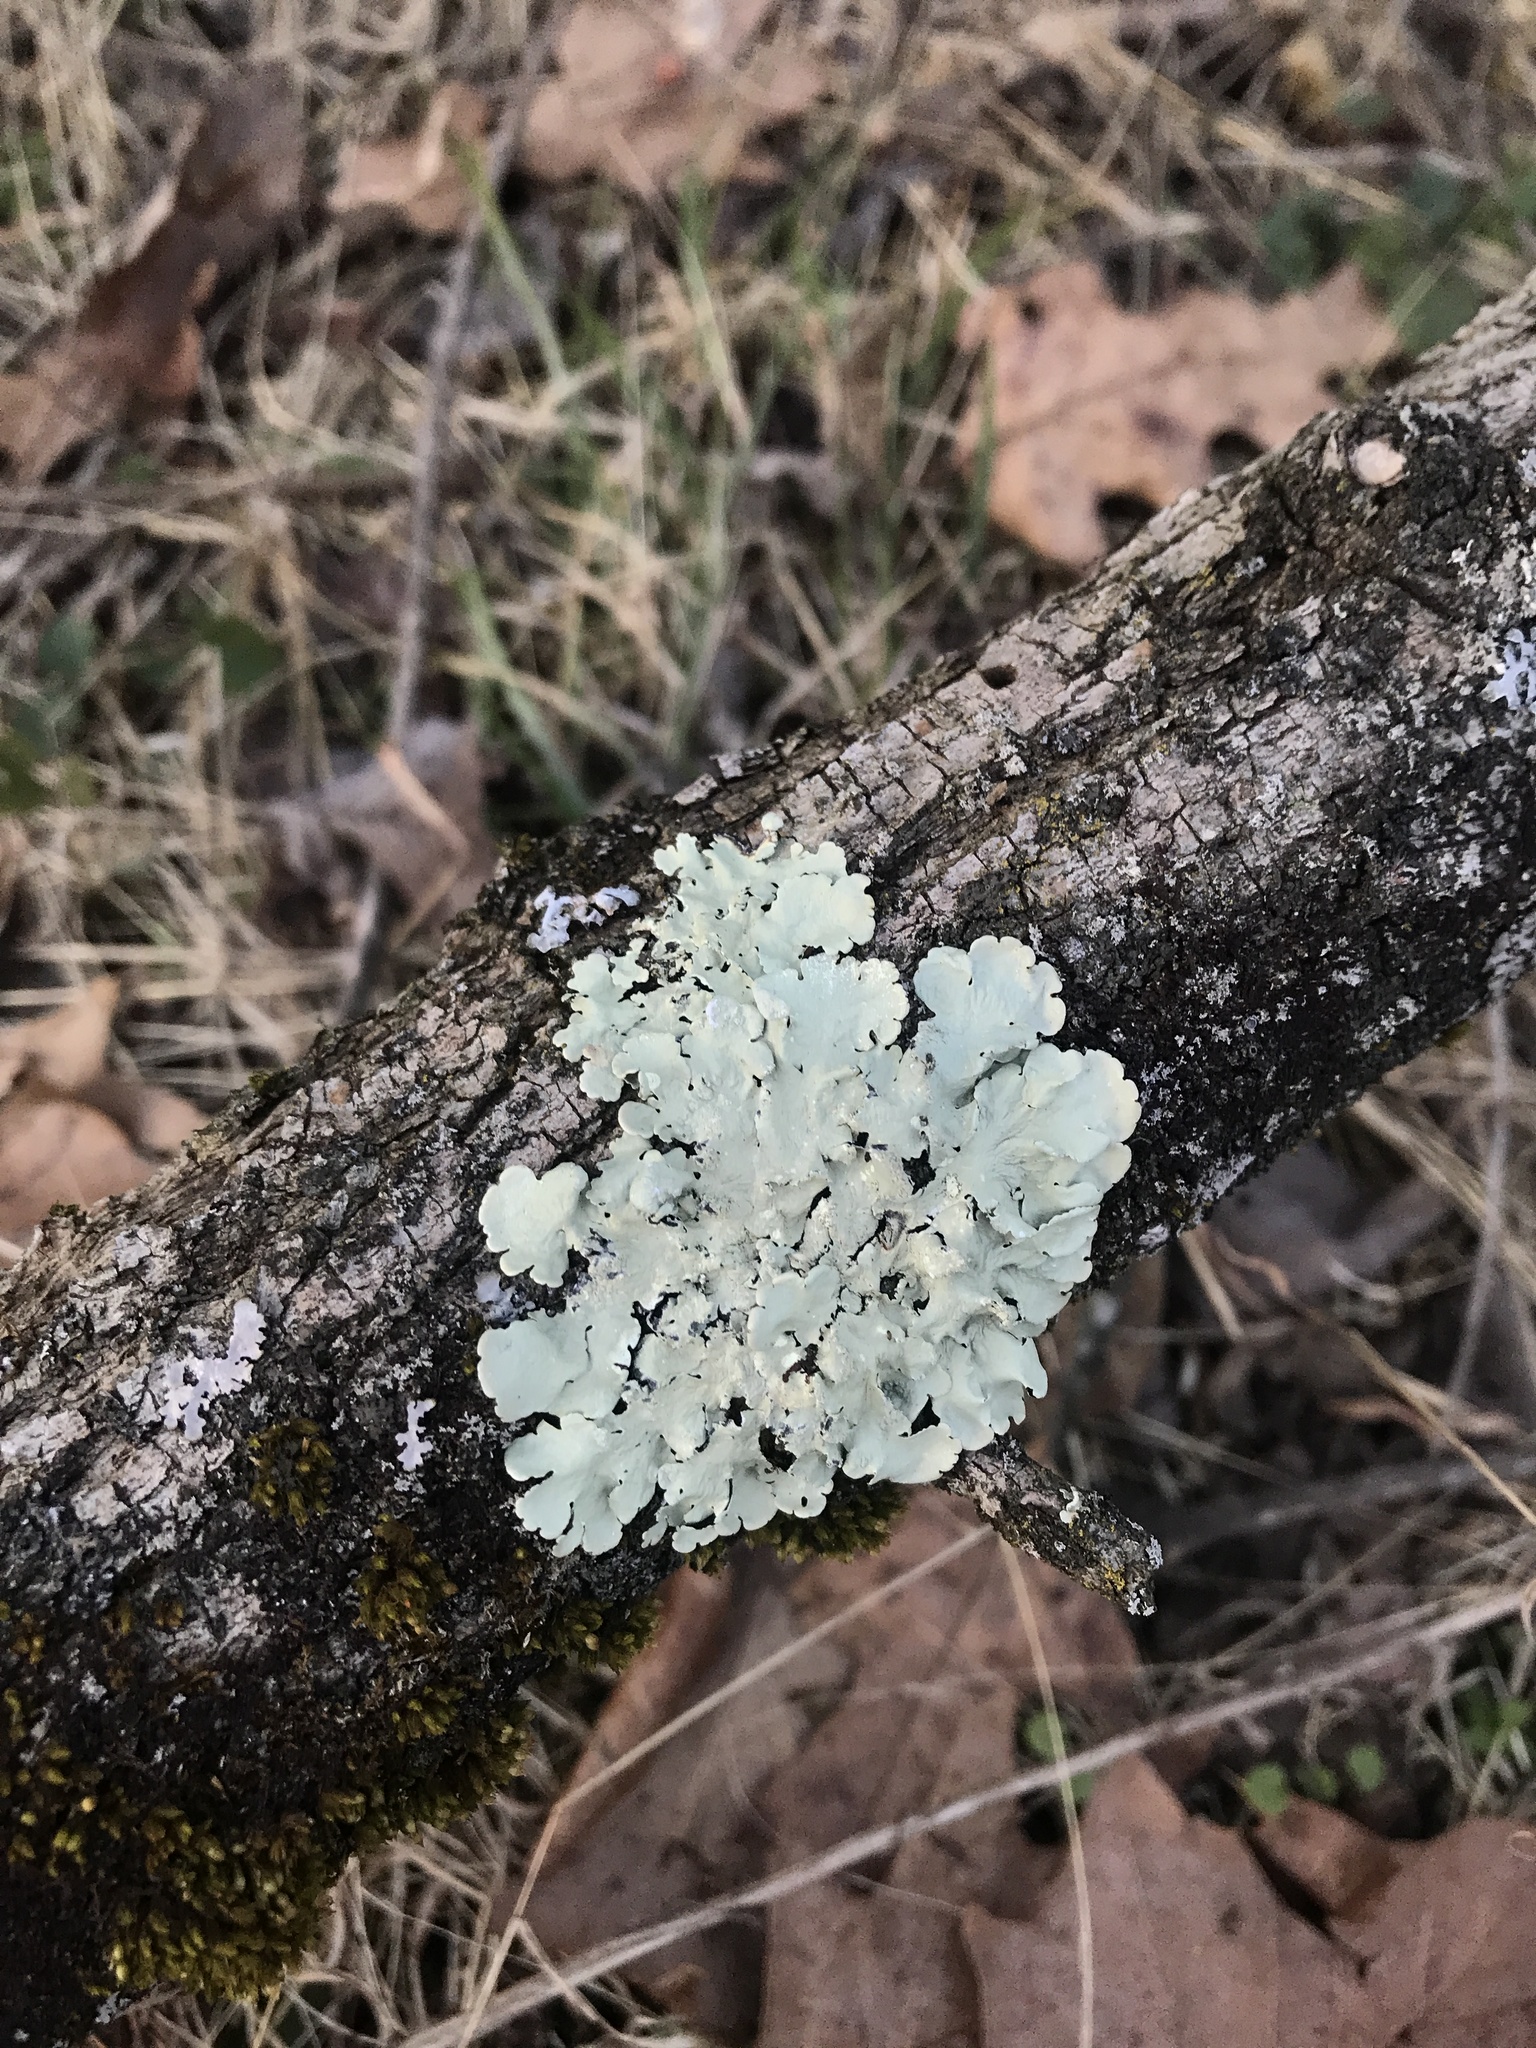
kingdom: Fungi
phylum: Ascomycota
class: Lecanoromycetes
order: Lecanorales
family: Parmeliaceae
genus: Flavoparmelia
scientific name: Flavoparmelia caperata
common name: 40-mile per hour lichen
